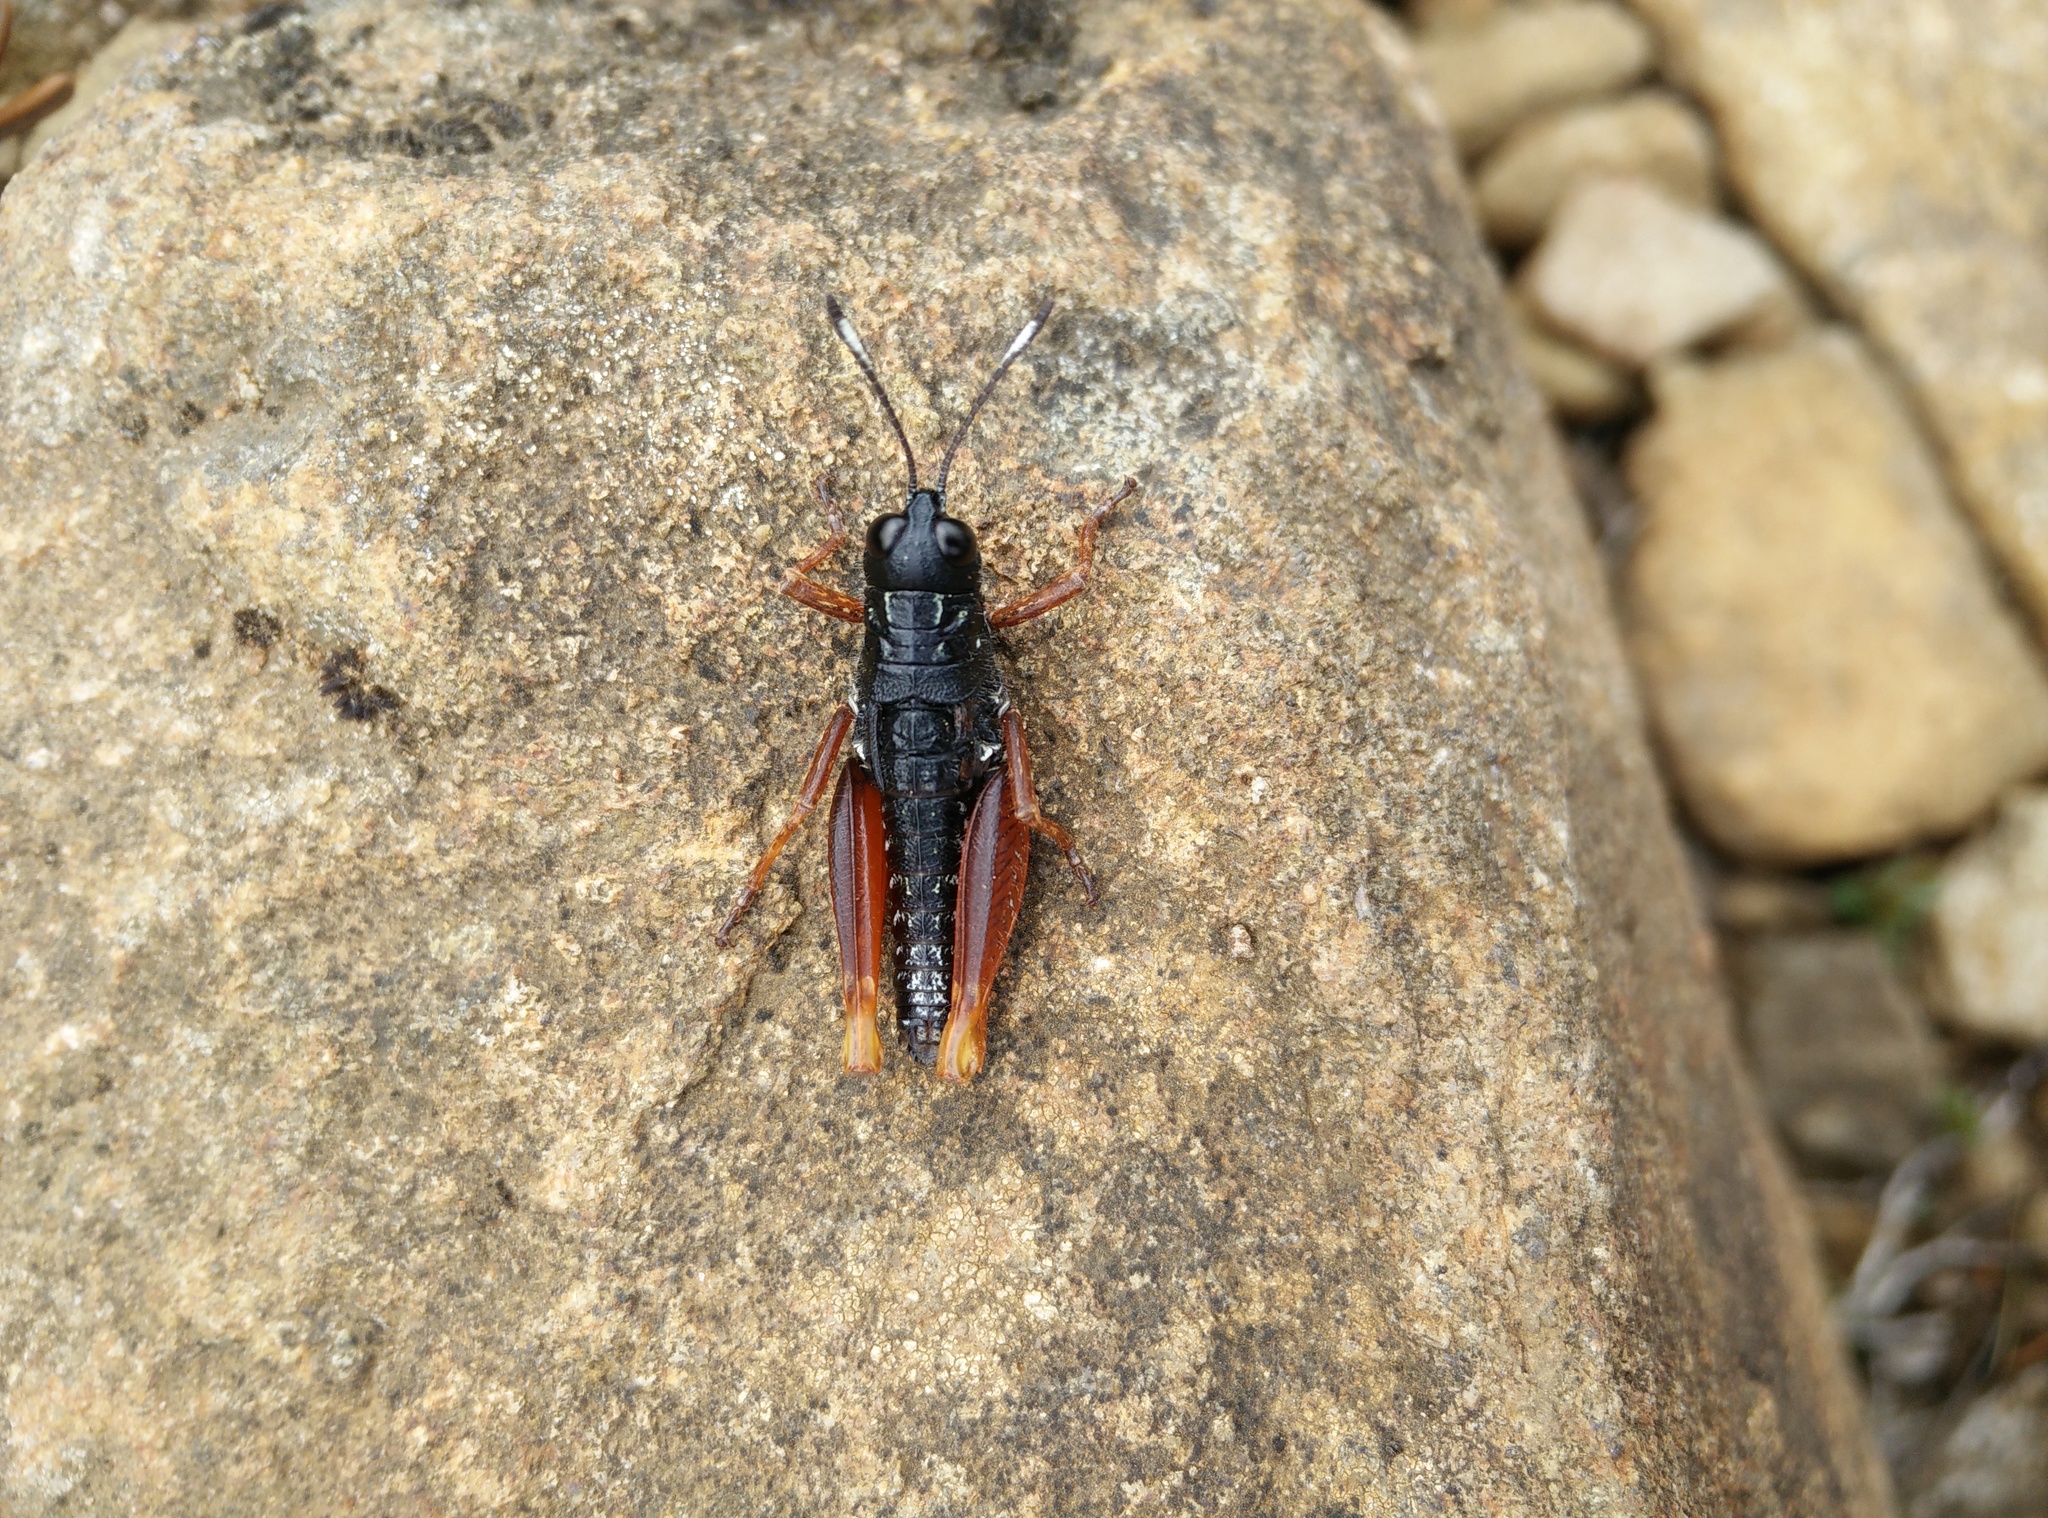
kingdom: Animalia
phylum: Arthropoda
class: Insecta
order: Orthoptera
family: Acrididae
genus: Tasmanalpina
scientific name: Tasmanalpina clavata
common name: Tasmanian velvet grasshopper
